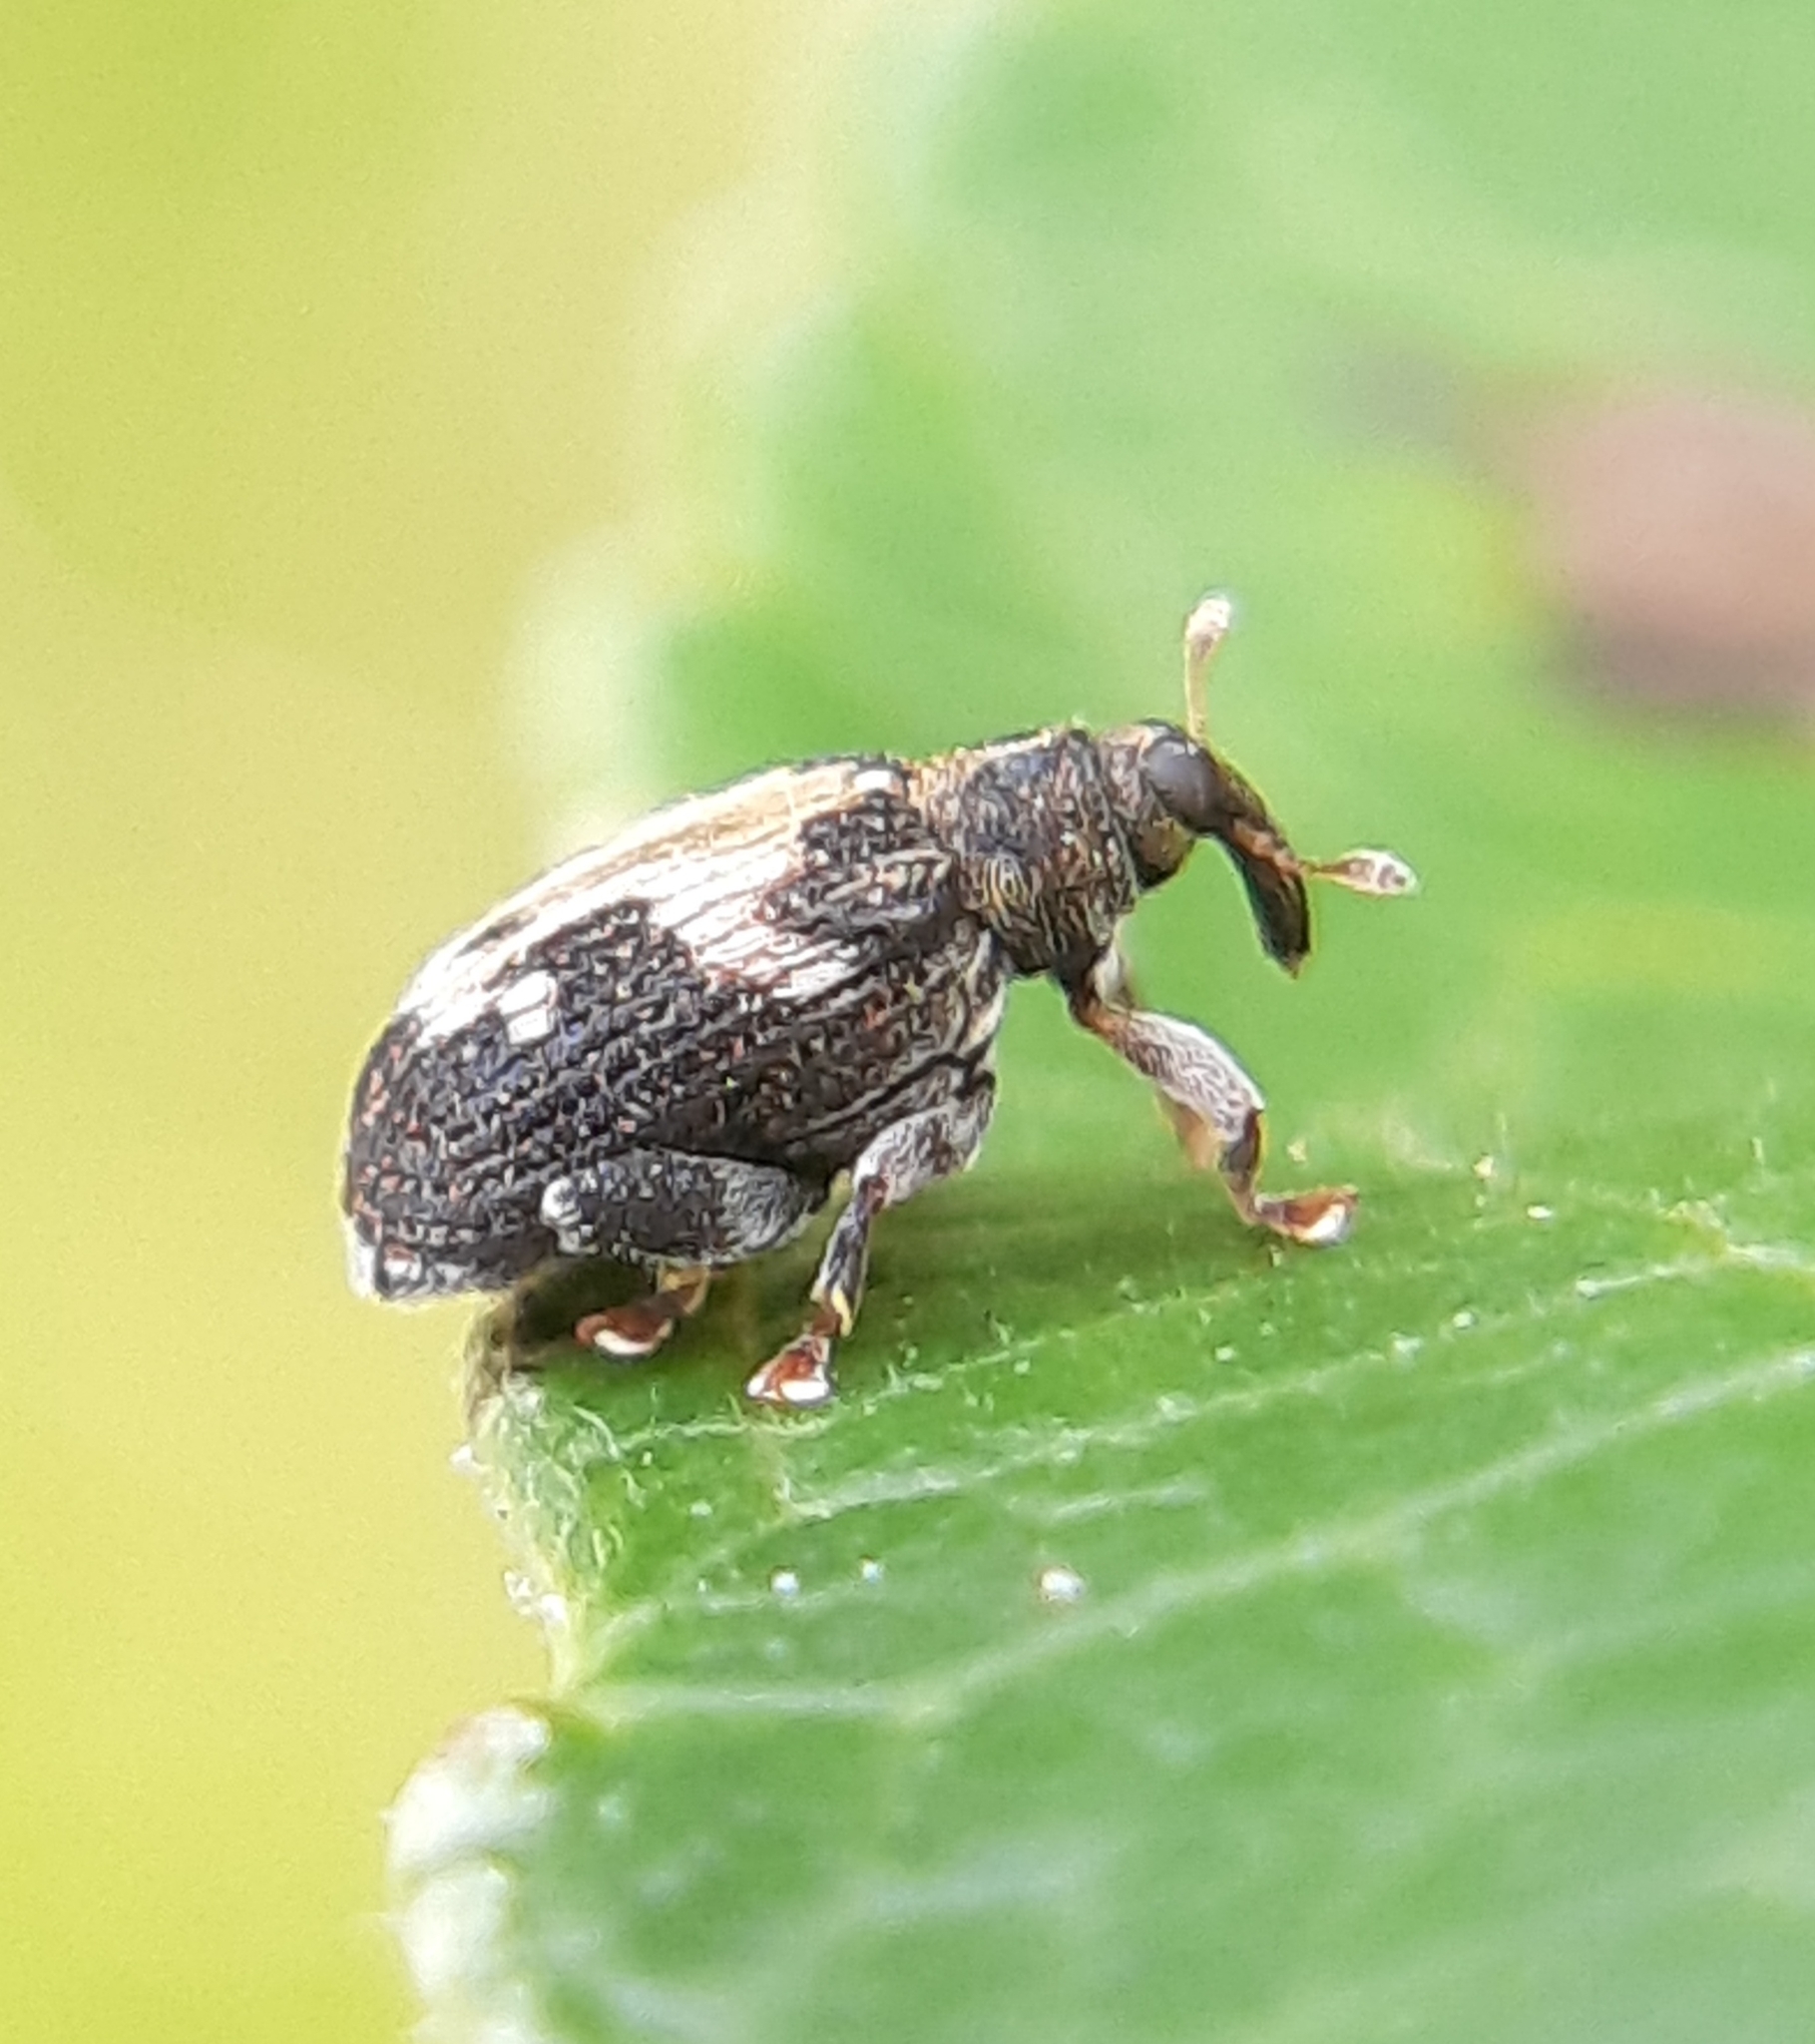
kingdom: Animalia
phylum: Arthropoda
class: Insecta
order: Coleoptera
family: Curculionidae
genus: Tachyerges
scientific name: Tachyerges ephippiatus
